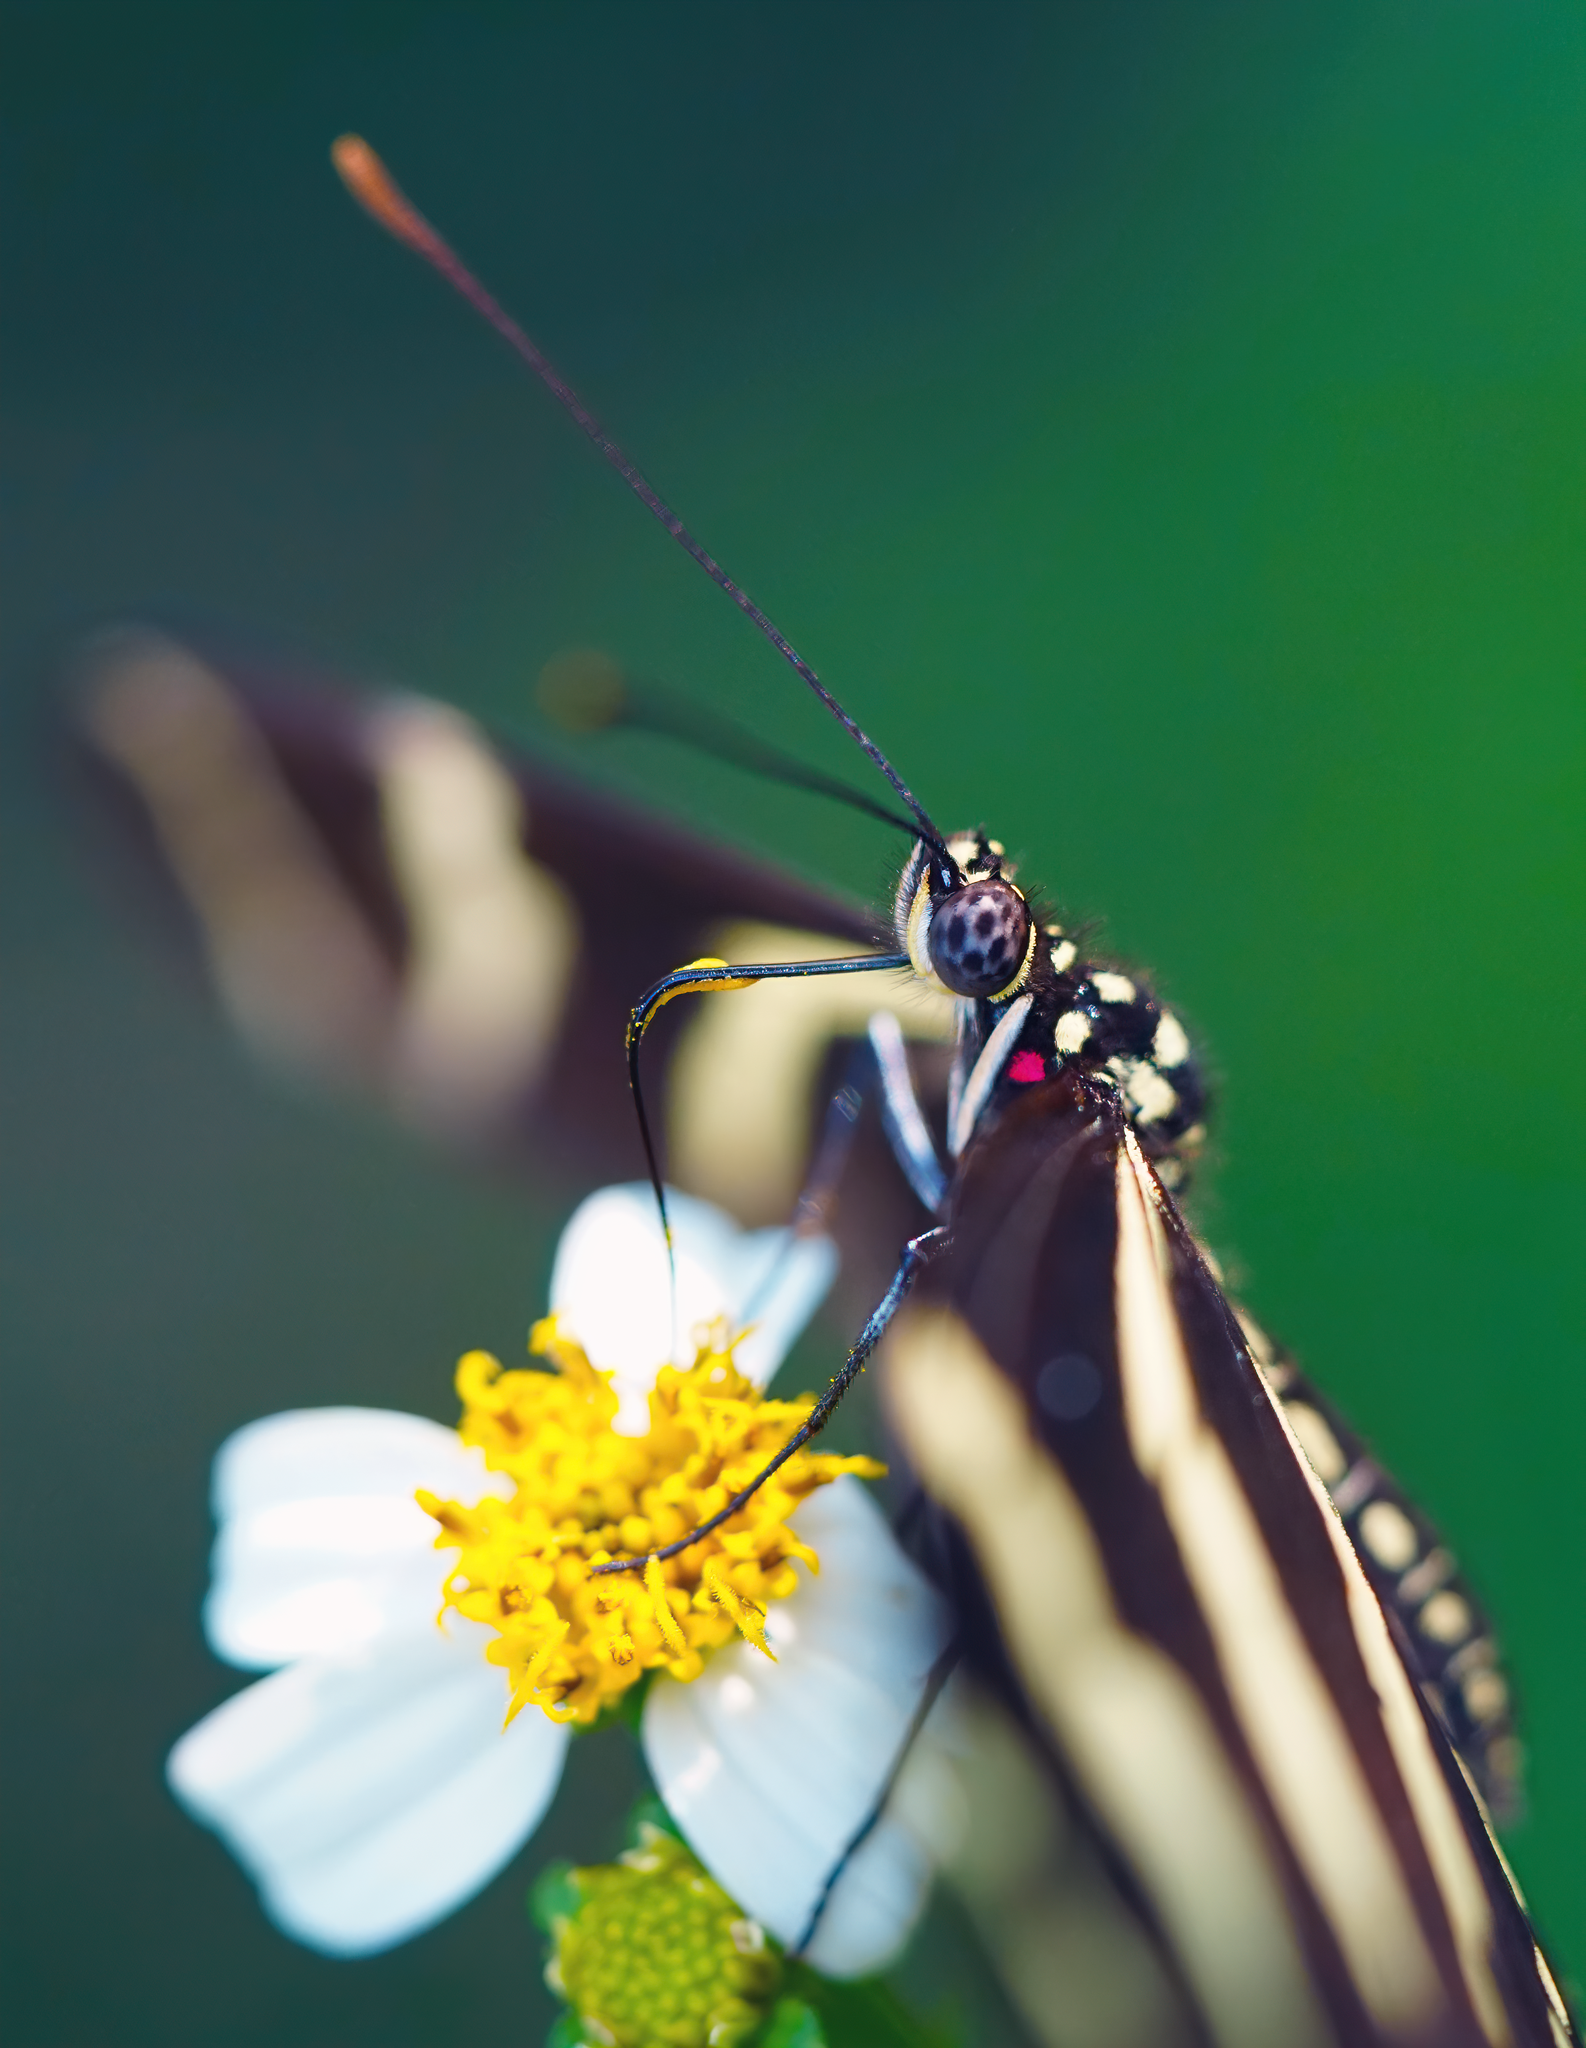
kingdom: Animalia
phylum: Arthropoda
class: Insecta
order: Lepidoptera
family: Nymphalidae
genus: Heliconius
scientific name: Heliconius charithonia
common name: Zebra long wing
